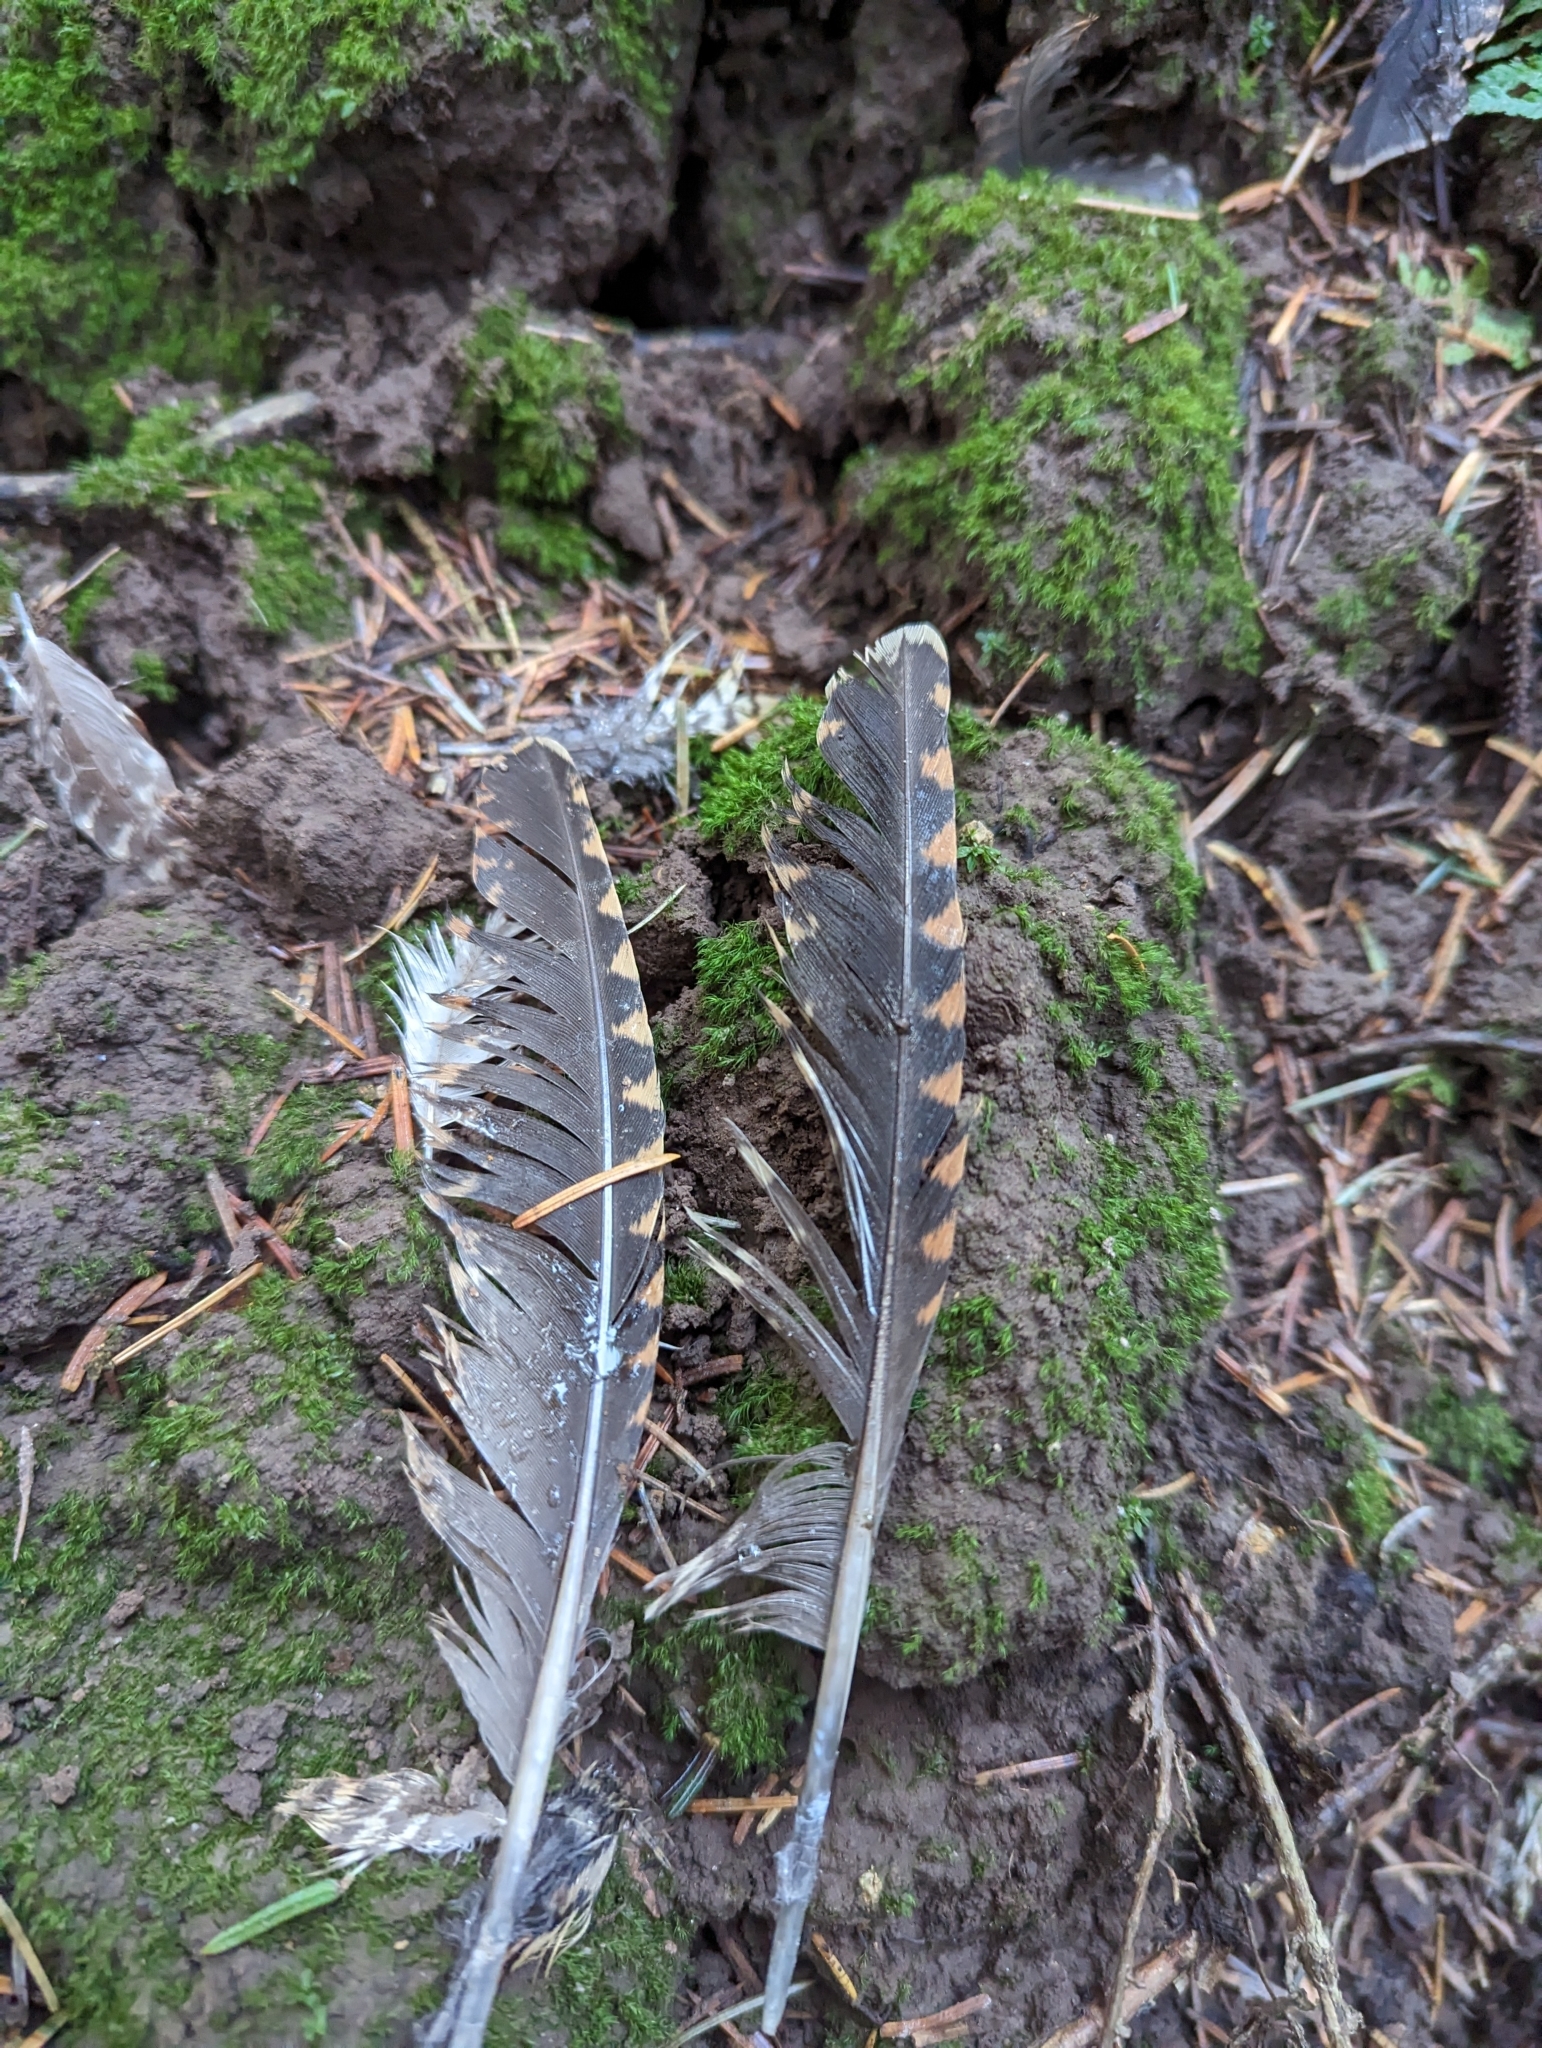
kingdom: Animalia
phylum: Chordata
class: Aves
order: Charadriiformes
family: Scolopacidae
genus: Scolopax
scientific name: Scolopax rusticola
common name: Eurasian woodcock
